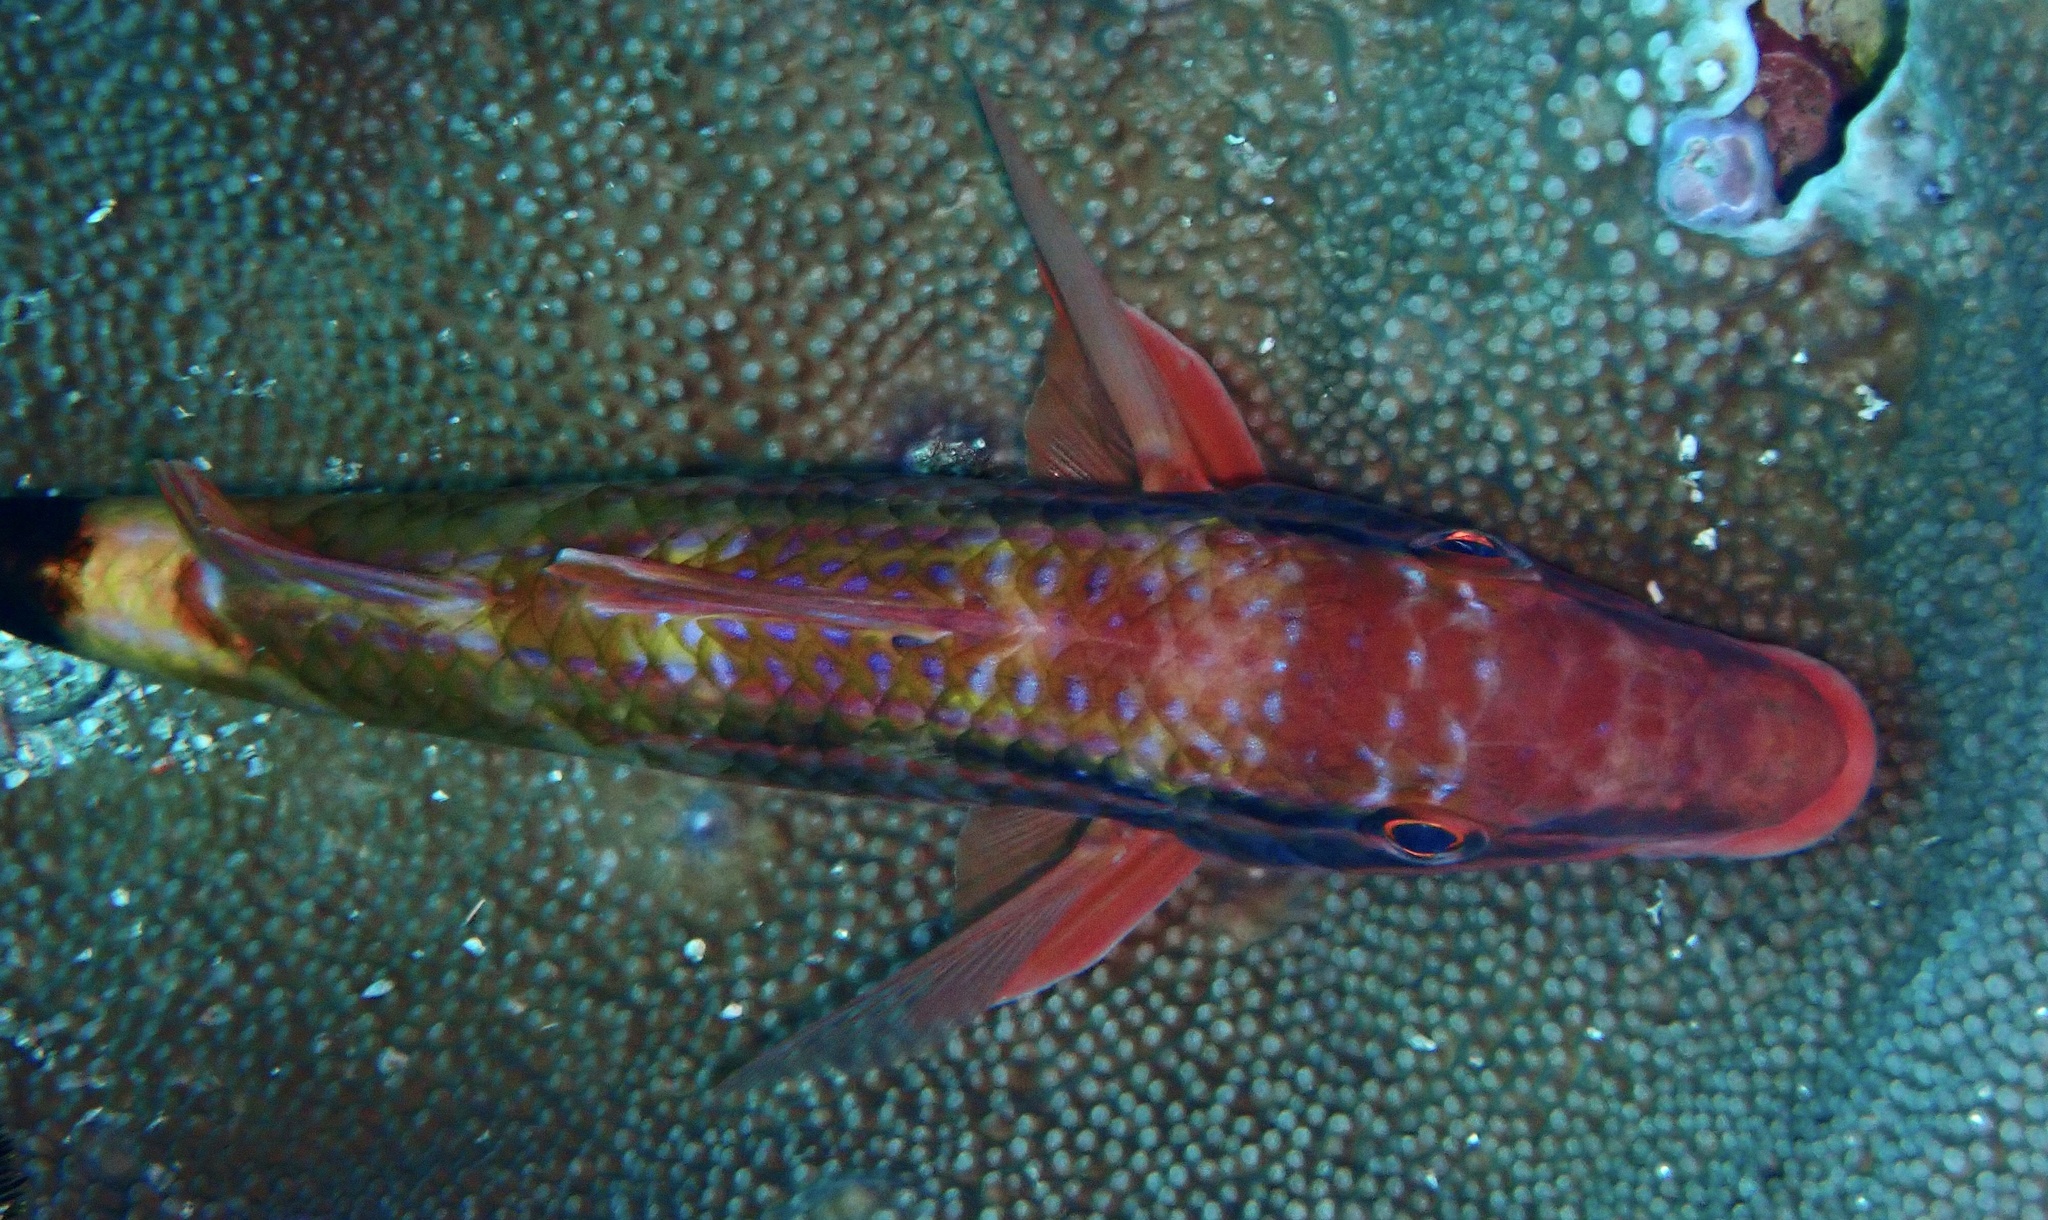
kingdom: Animalia
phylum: Chordata
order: Perciformes
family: Mullidae
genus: Parupeneus
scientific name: Parupeneus spilurus
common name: Blackspot goatfish
